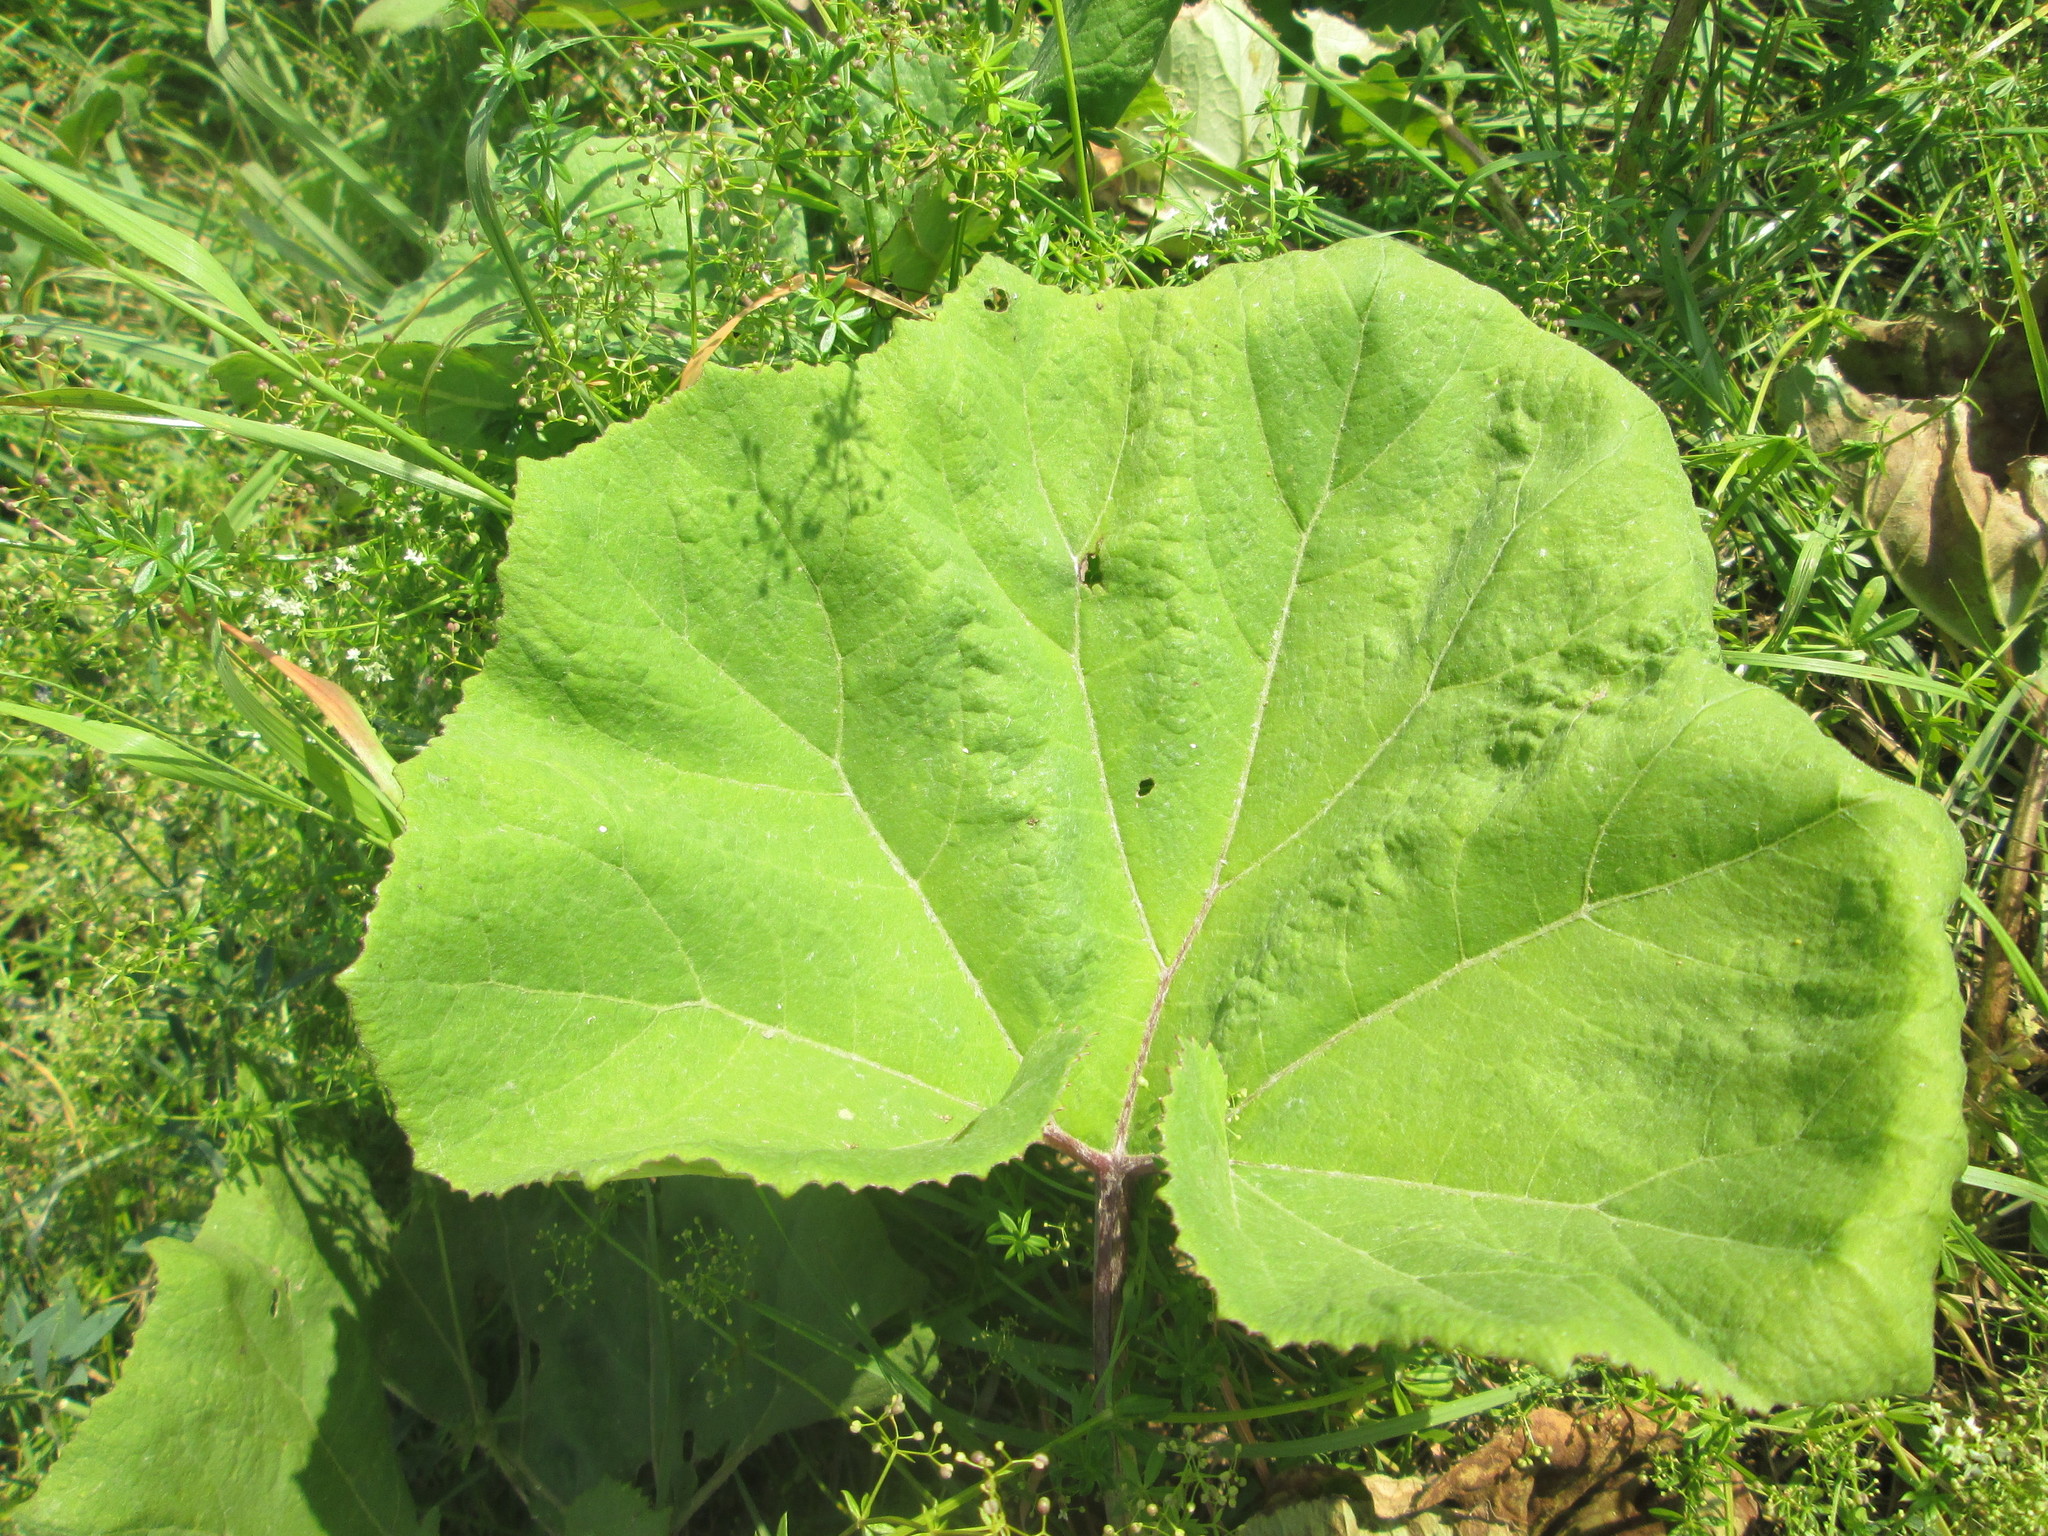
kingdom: Plantae
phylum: Tracheophyta
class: Magnoliopsida
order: Asterales
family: Asteraceae
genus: Petasites
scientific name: Petasites hybridus
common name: Butterbur
